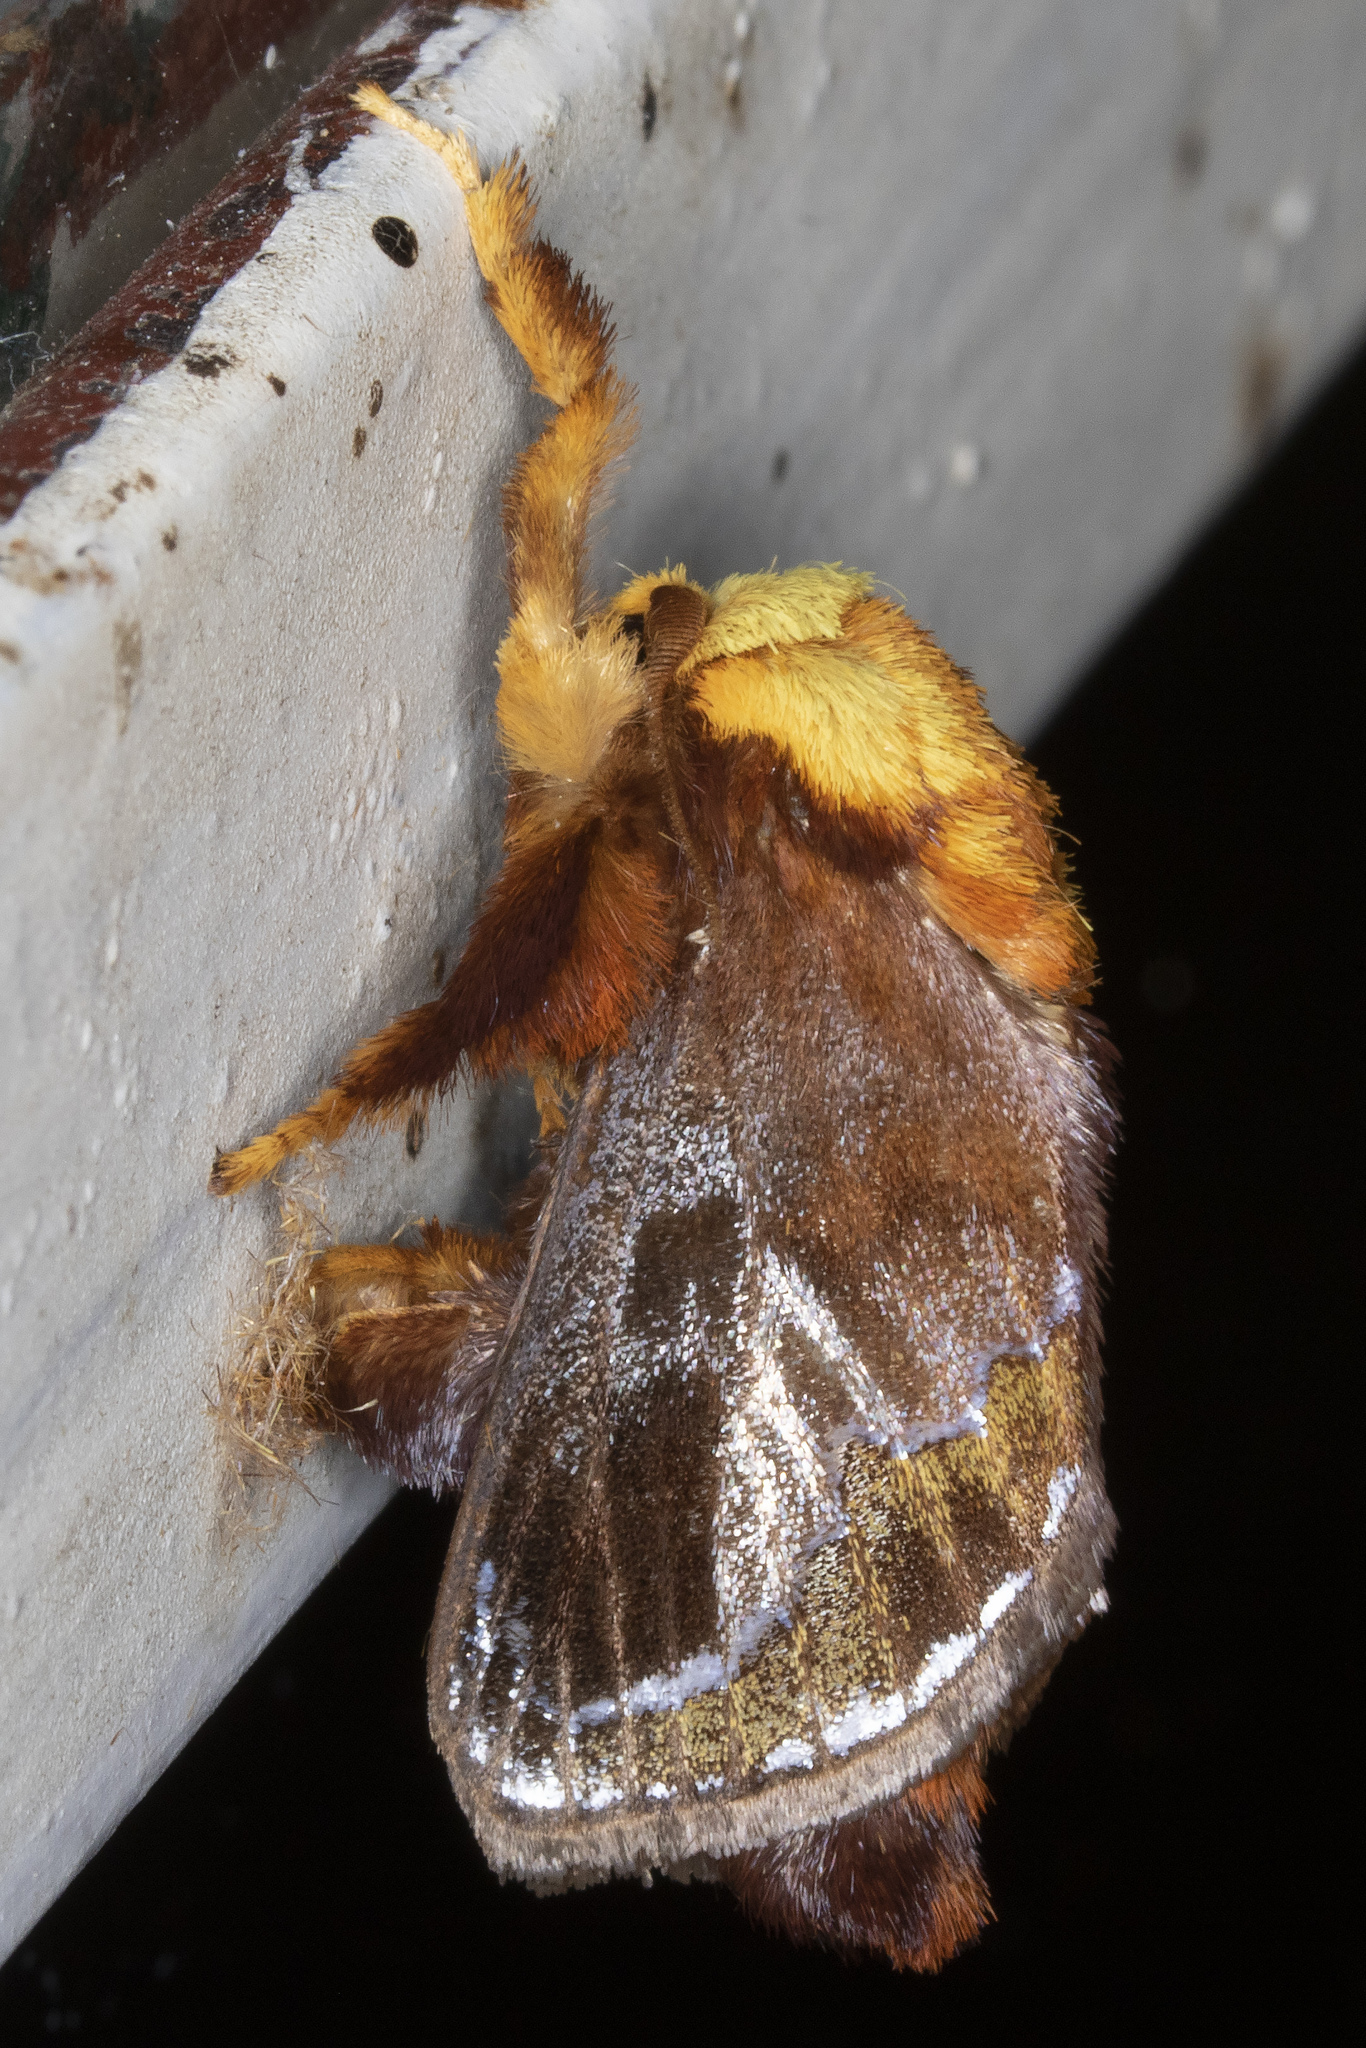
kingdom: Animalia
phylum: Arthropoda
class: Insecta
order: Lepidoptera
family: Limacodidae
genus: Miresa
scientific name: Miresa clarissa
